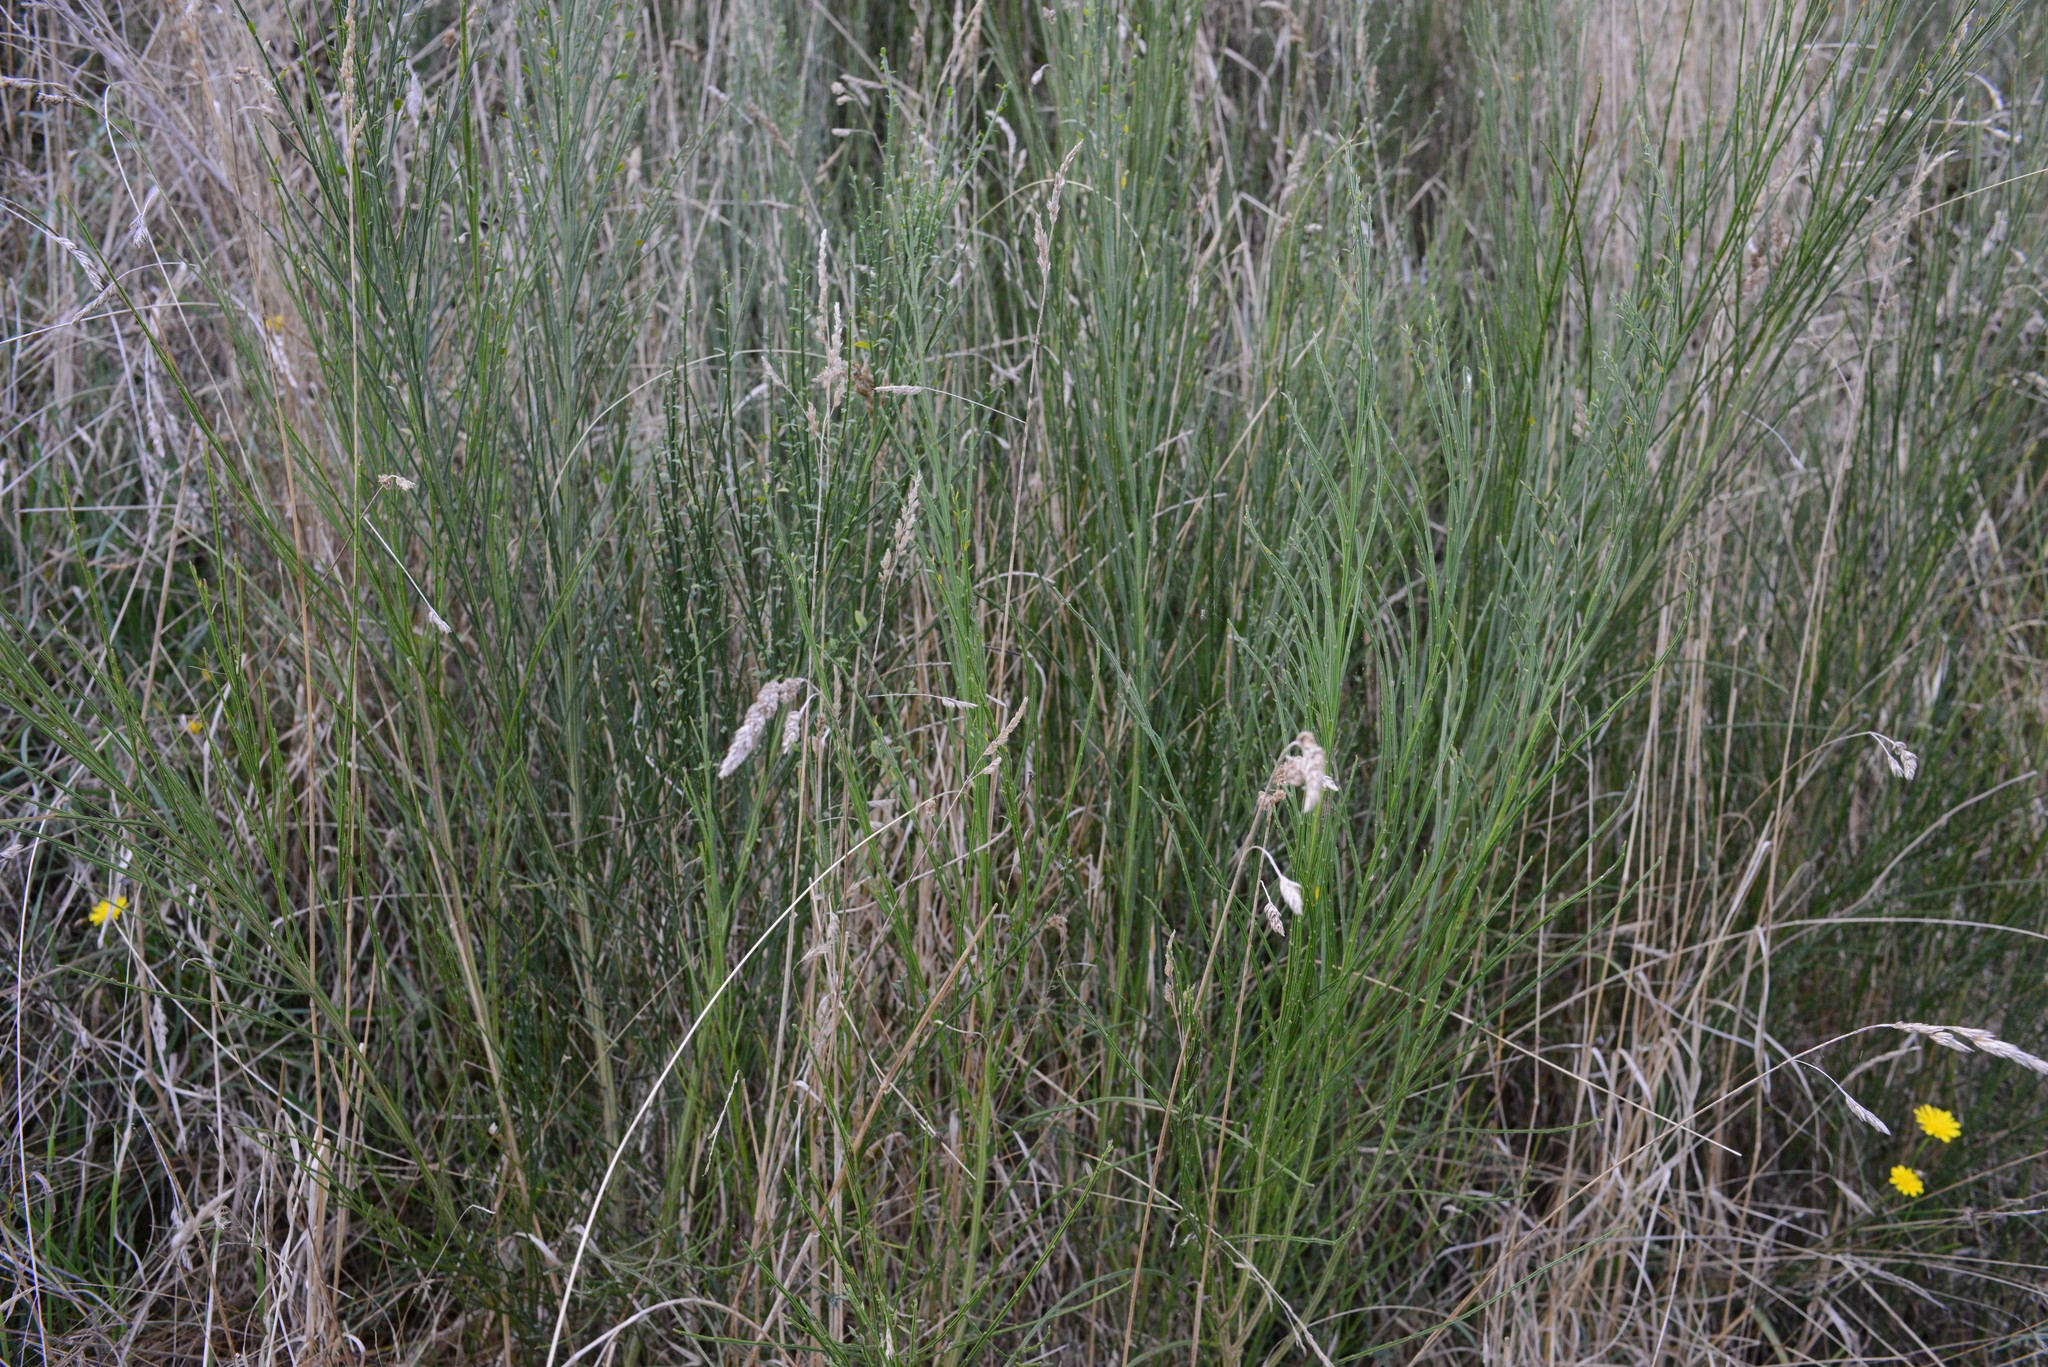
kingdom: Plantae
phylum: Tracheophyta
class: Magnoliopsida
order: Fabales
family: Fabaceae
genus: Cytisus
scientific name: Cytisus scoparius
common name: Scotch broom
